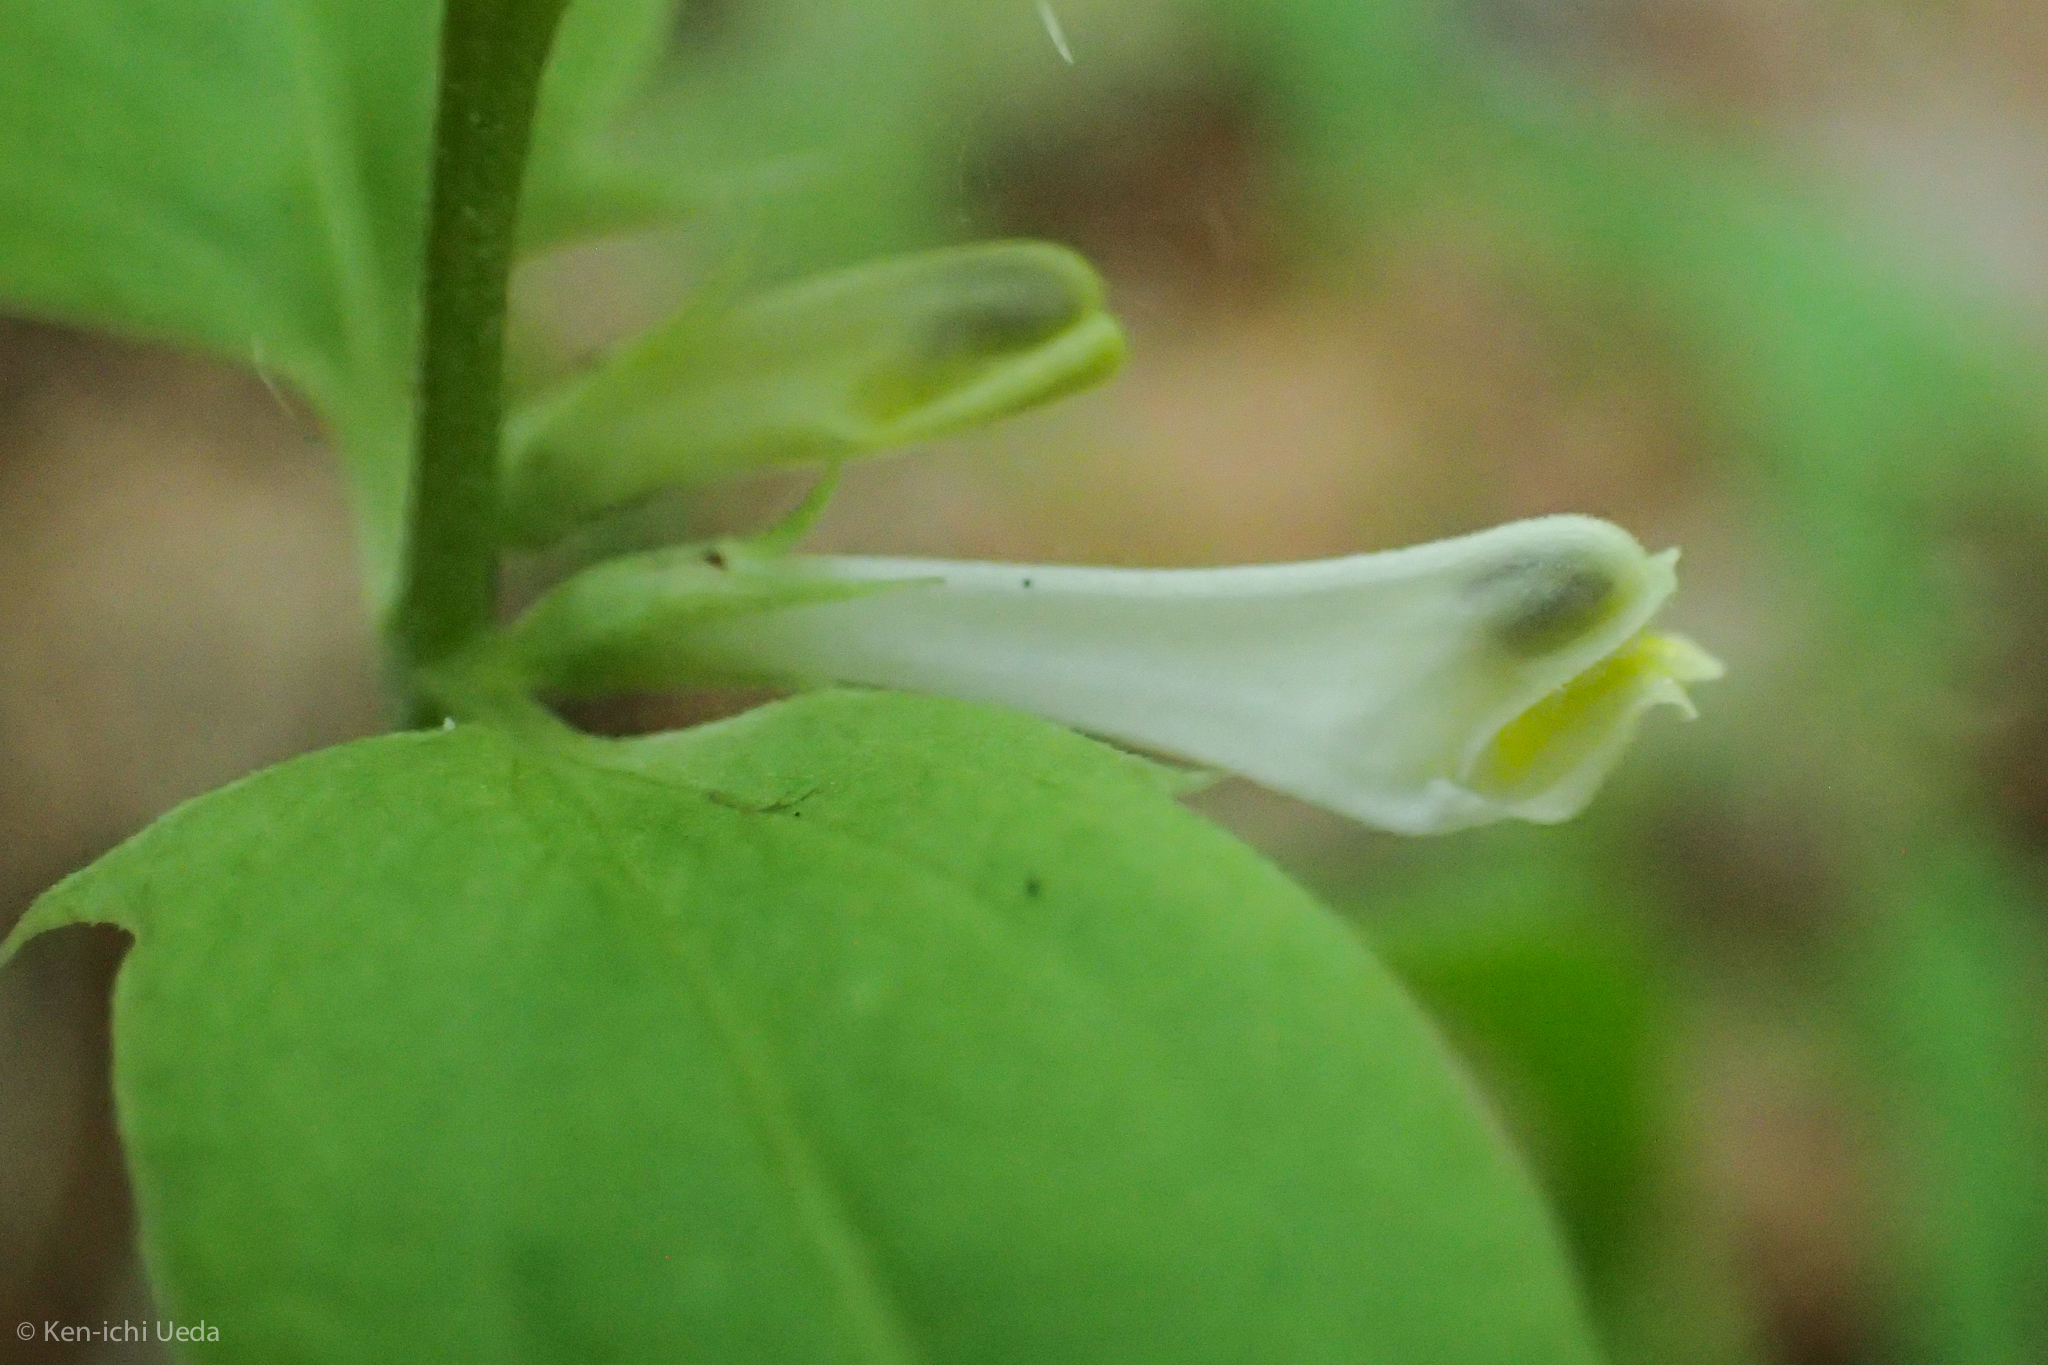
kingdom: Plantae
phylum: Tracheophyta
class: Magnoliopsida
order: Lamiales
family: Orobanchaceae
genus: Melampyrum
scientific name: Melampyrum lineare
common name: American cow-wheat
